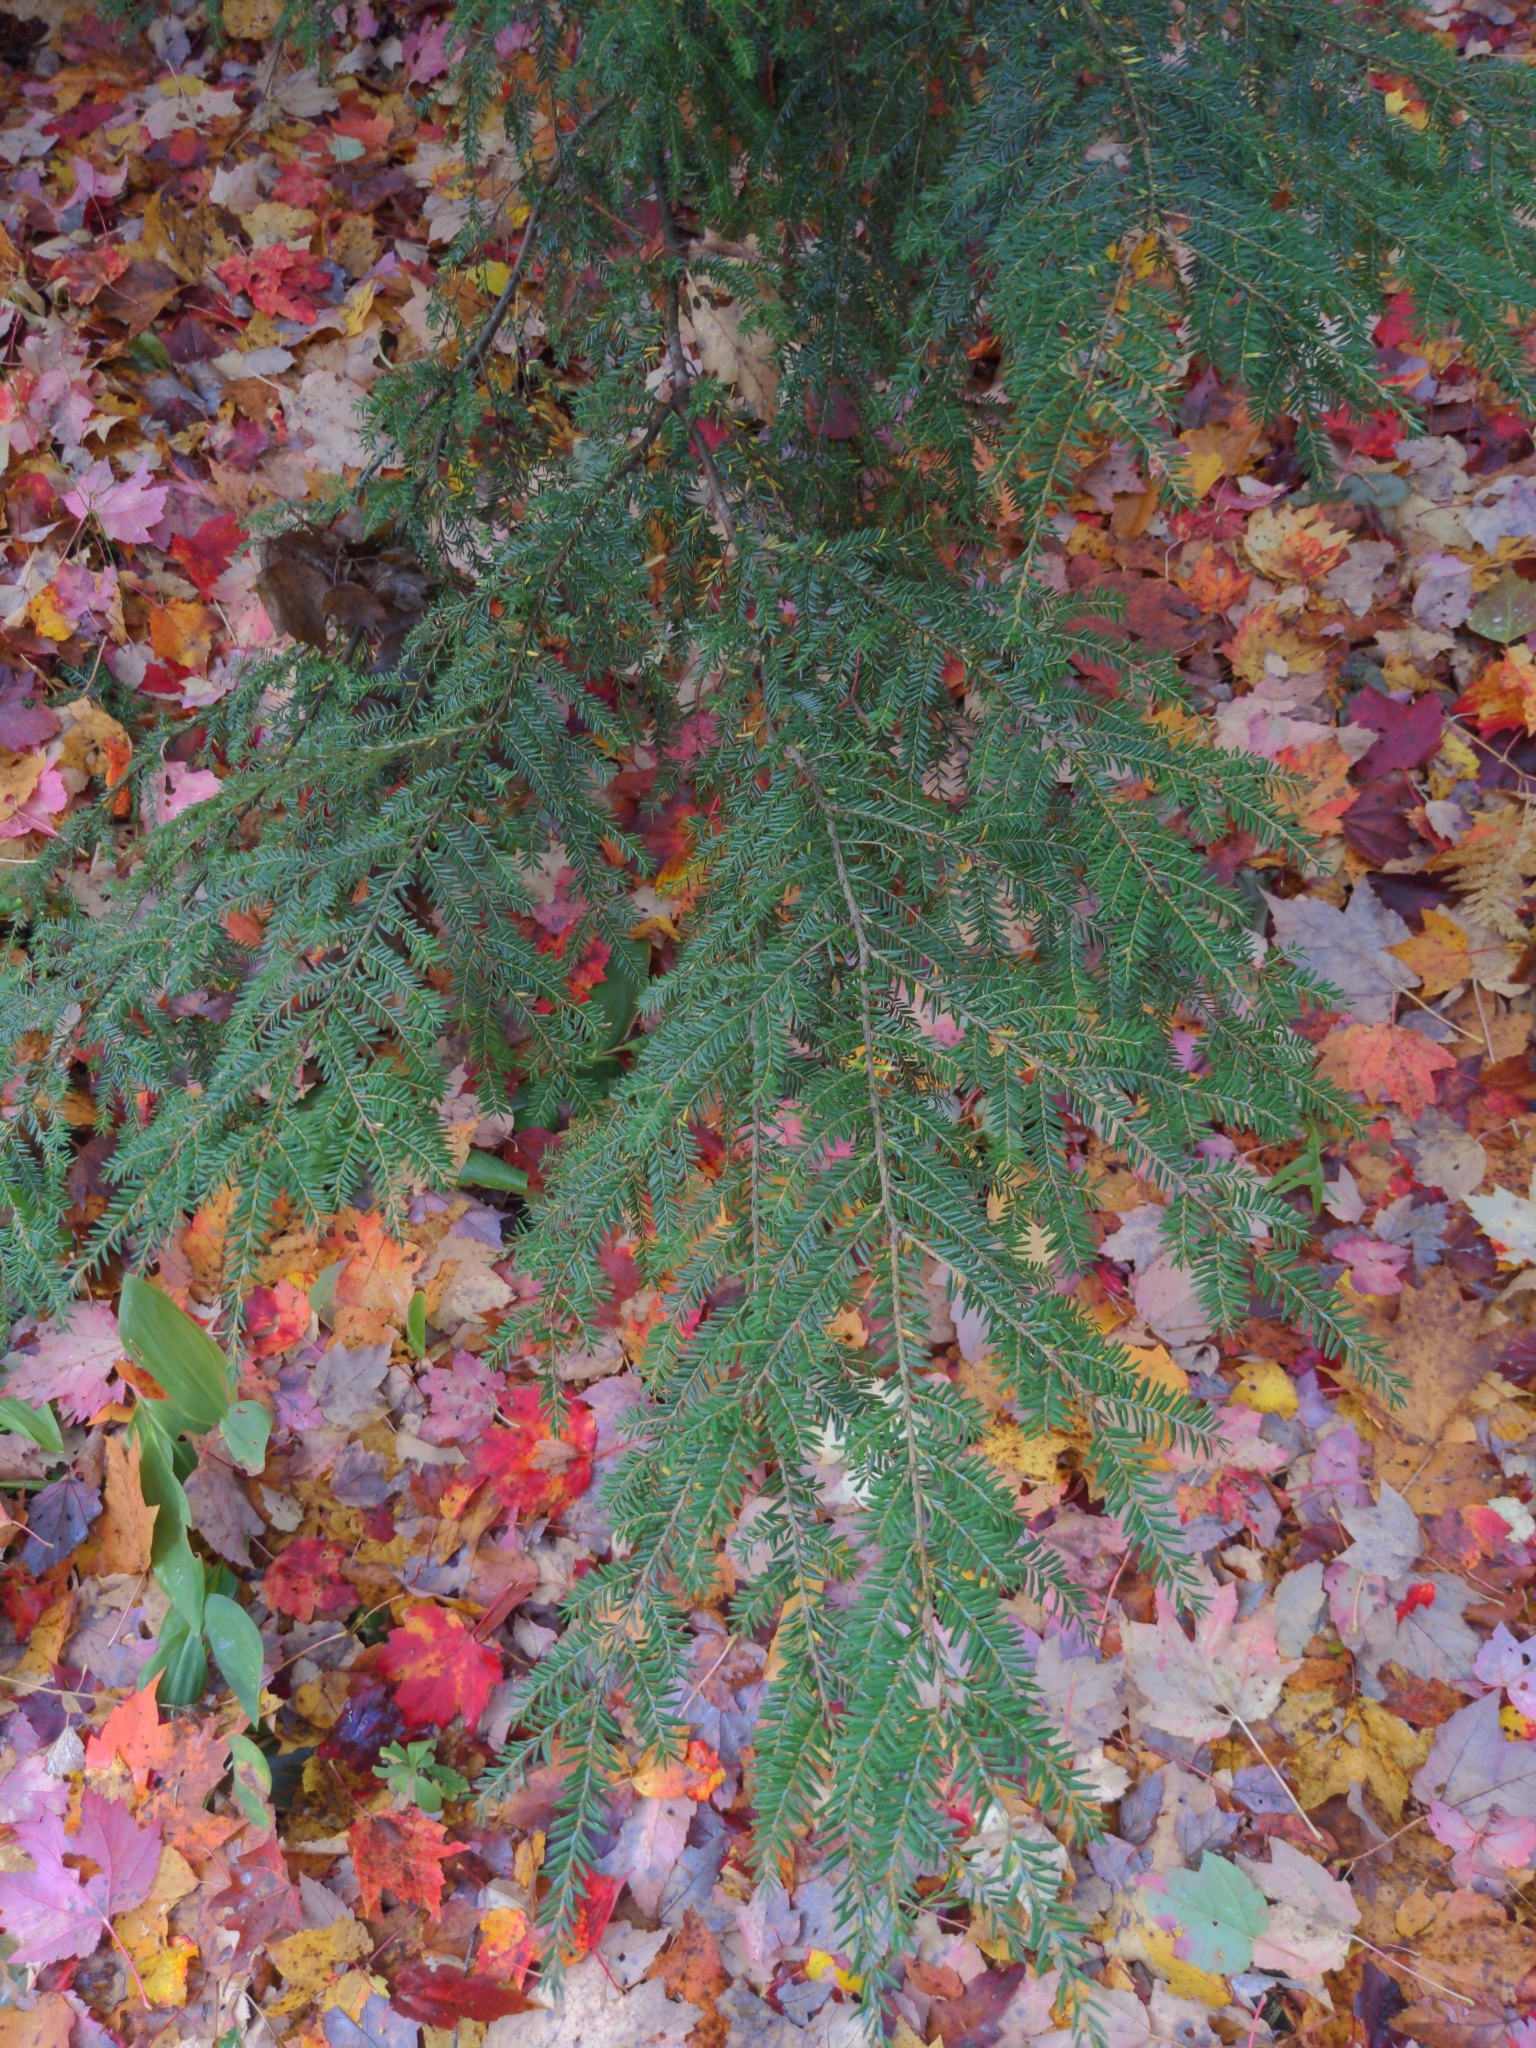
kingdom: Plantae
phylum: Tracheophyta
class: Pinopsida
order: Pinales
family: Pinaceae
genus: Tsuga
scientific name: Tsuga canadensis
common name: Eastern hemlock
